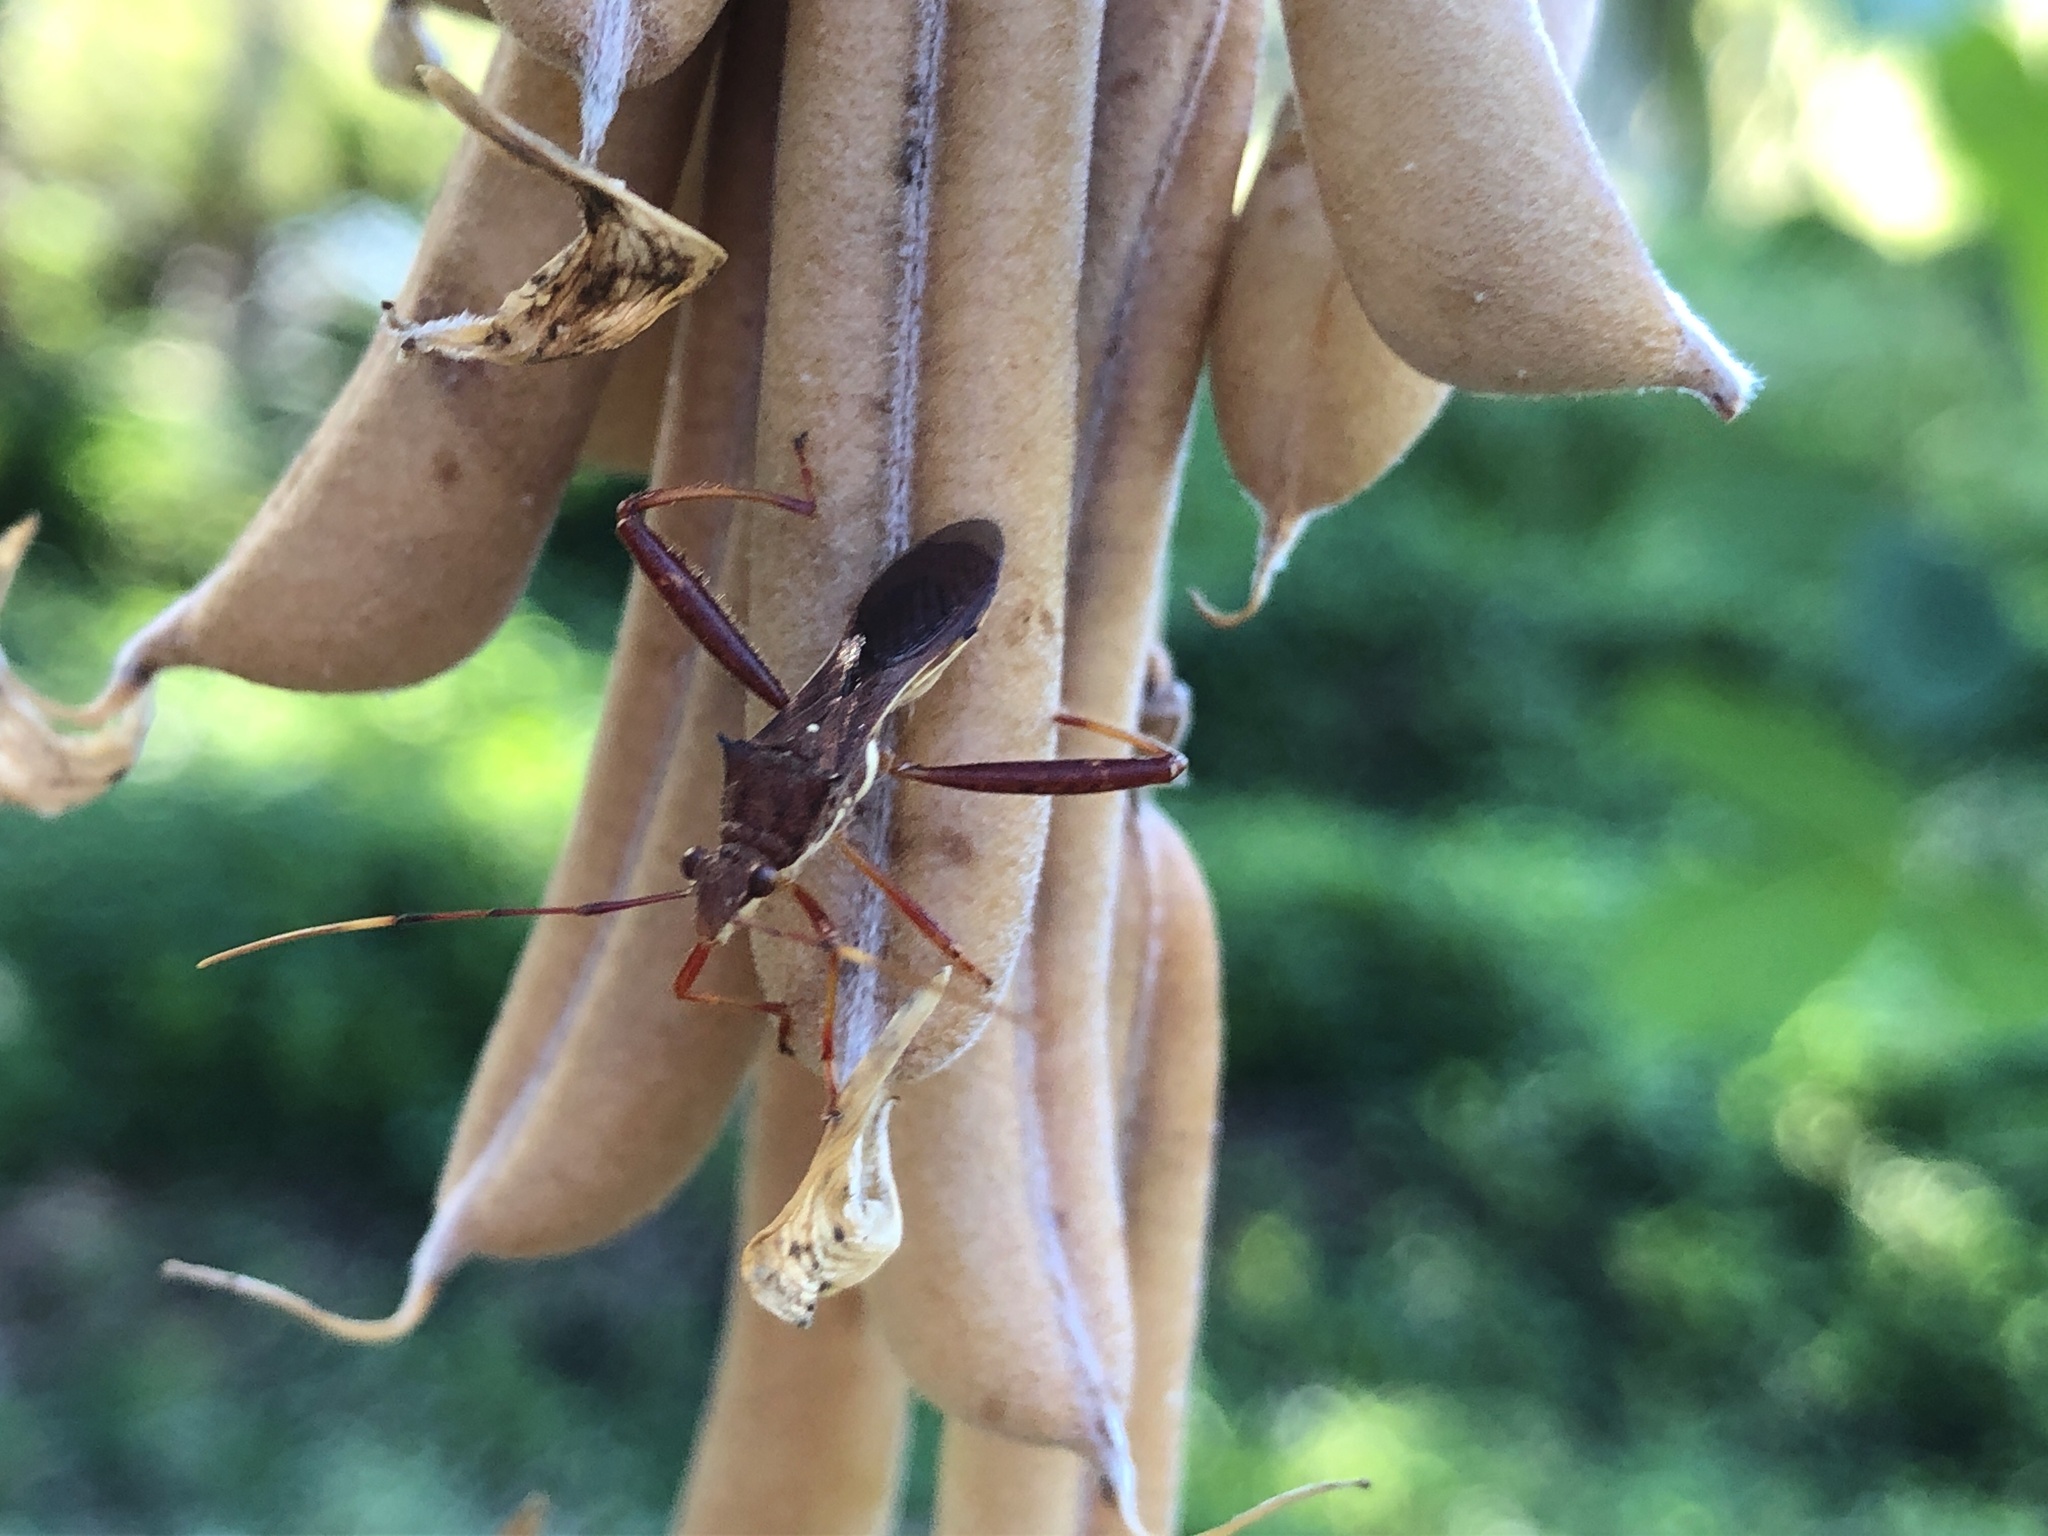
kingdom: Animalia
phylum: Arthropoda
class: Insecta
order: Hemiptera
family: Alydidae
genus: Riptortus
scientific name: Riptortus abdominalis
